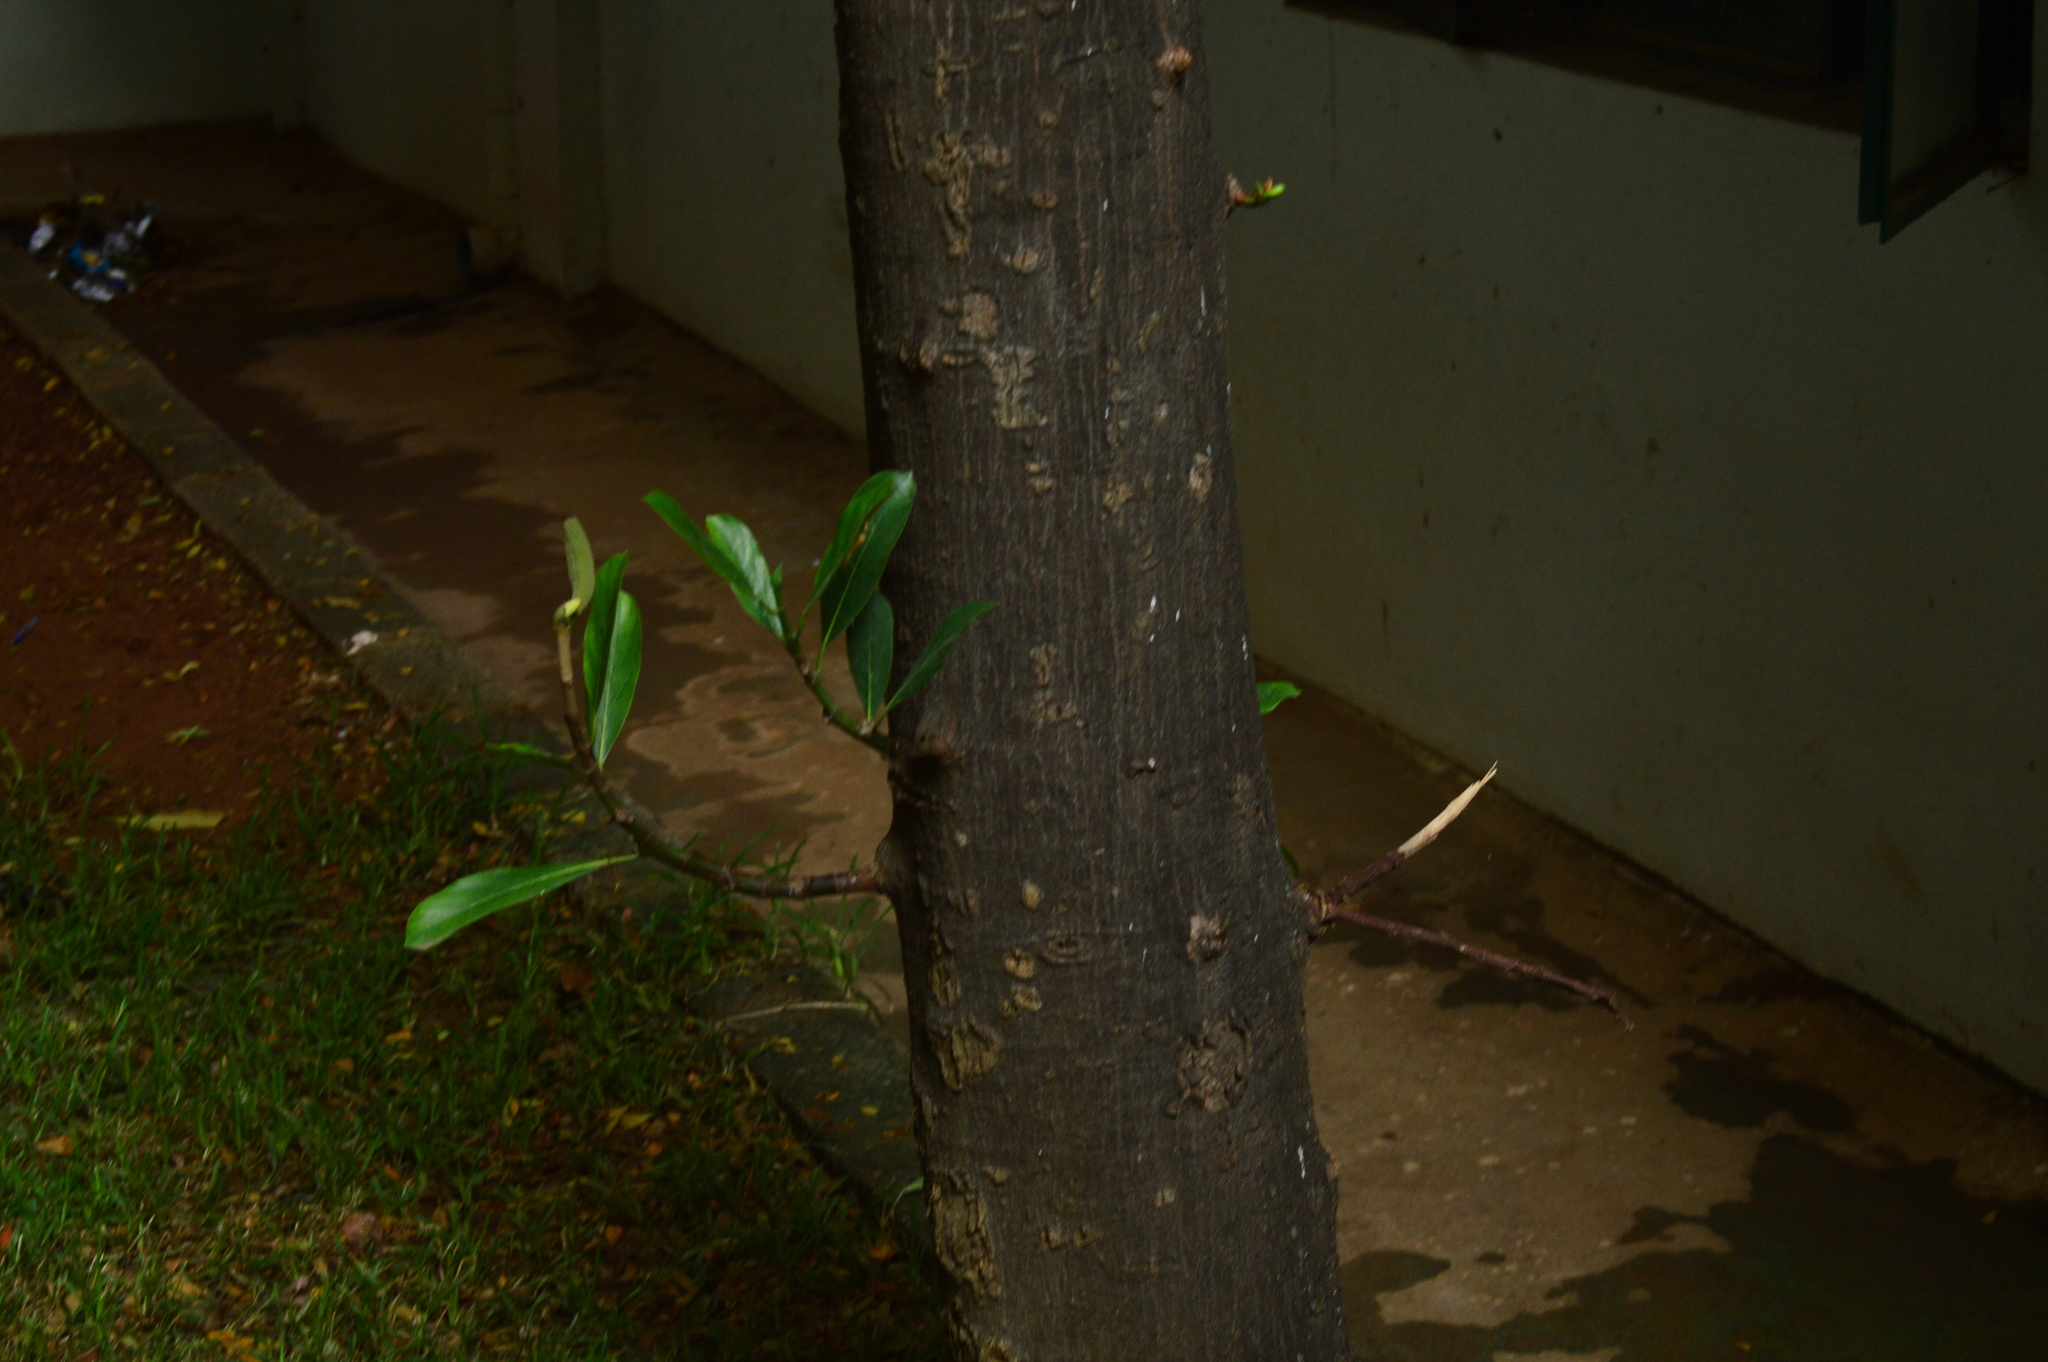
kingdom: Plantae
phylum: Tracheophyta
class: Magnoliopsida
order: Rosales
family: Moraceae
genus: Artocarpus
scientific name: Artocarpus heterophyllus
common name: Jackfruit
